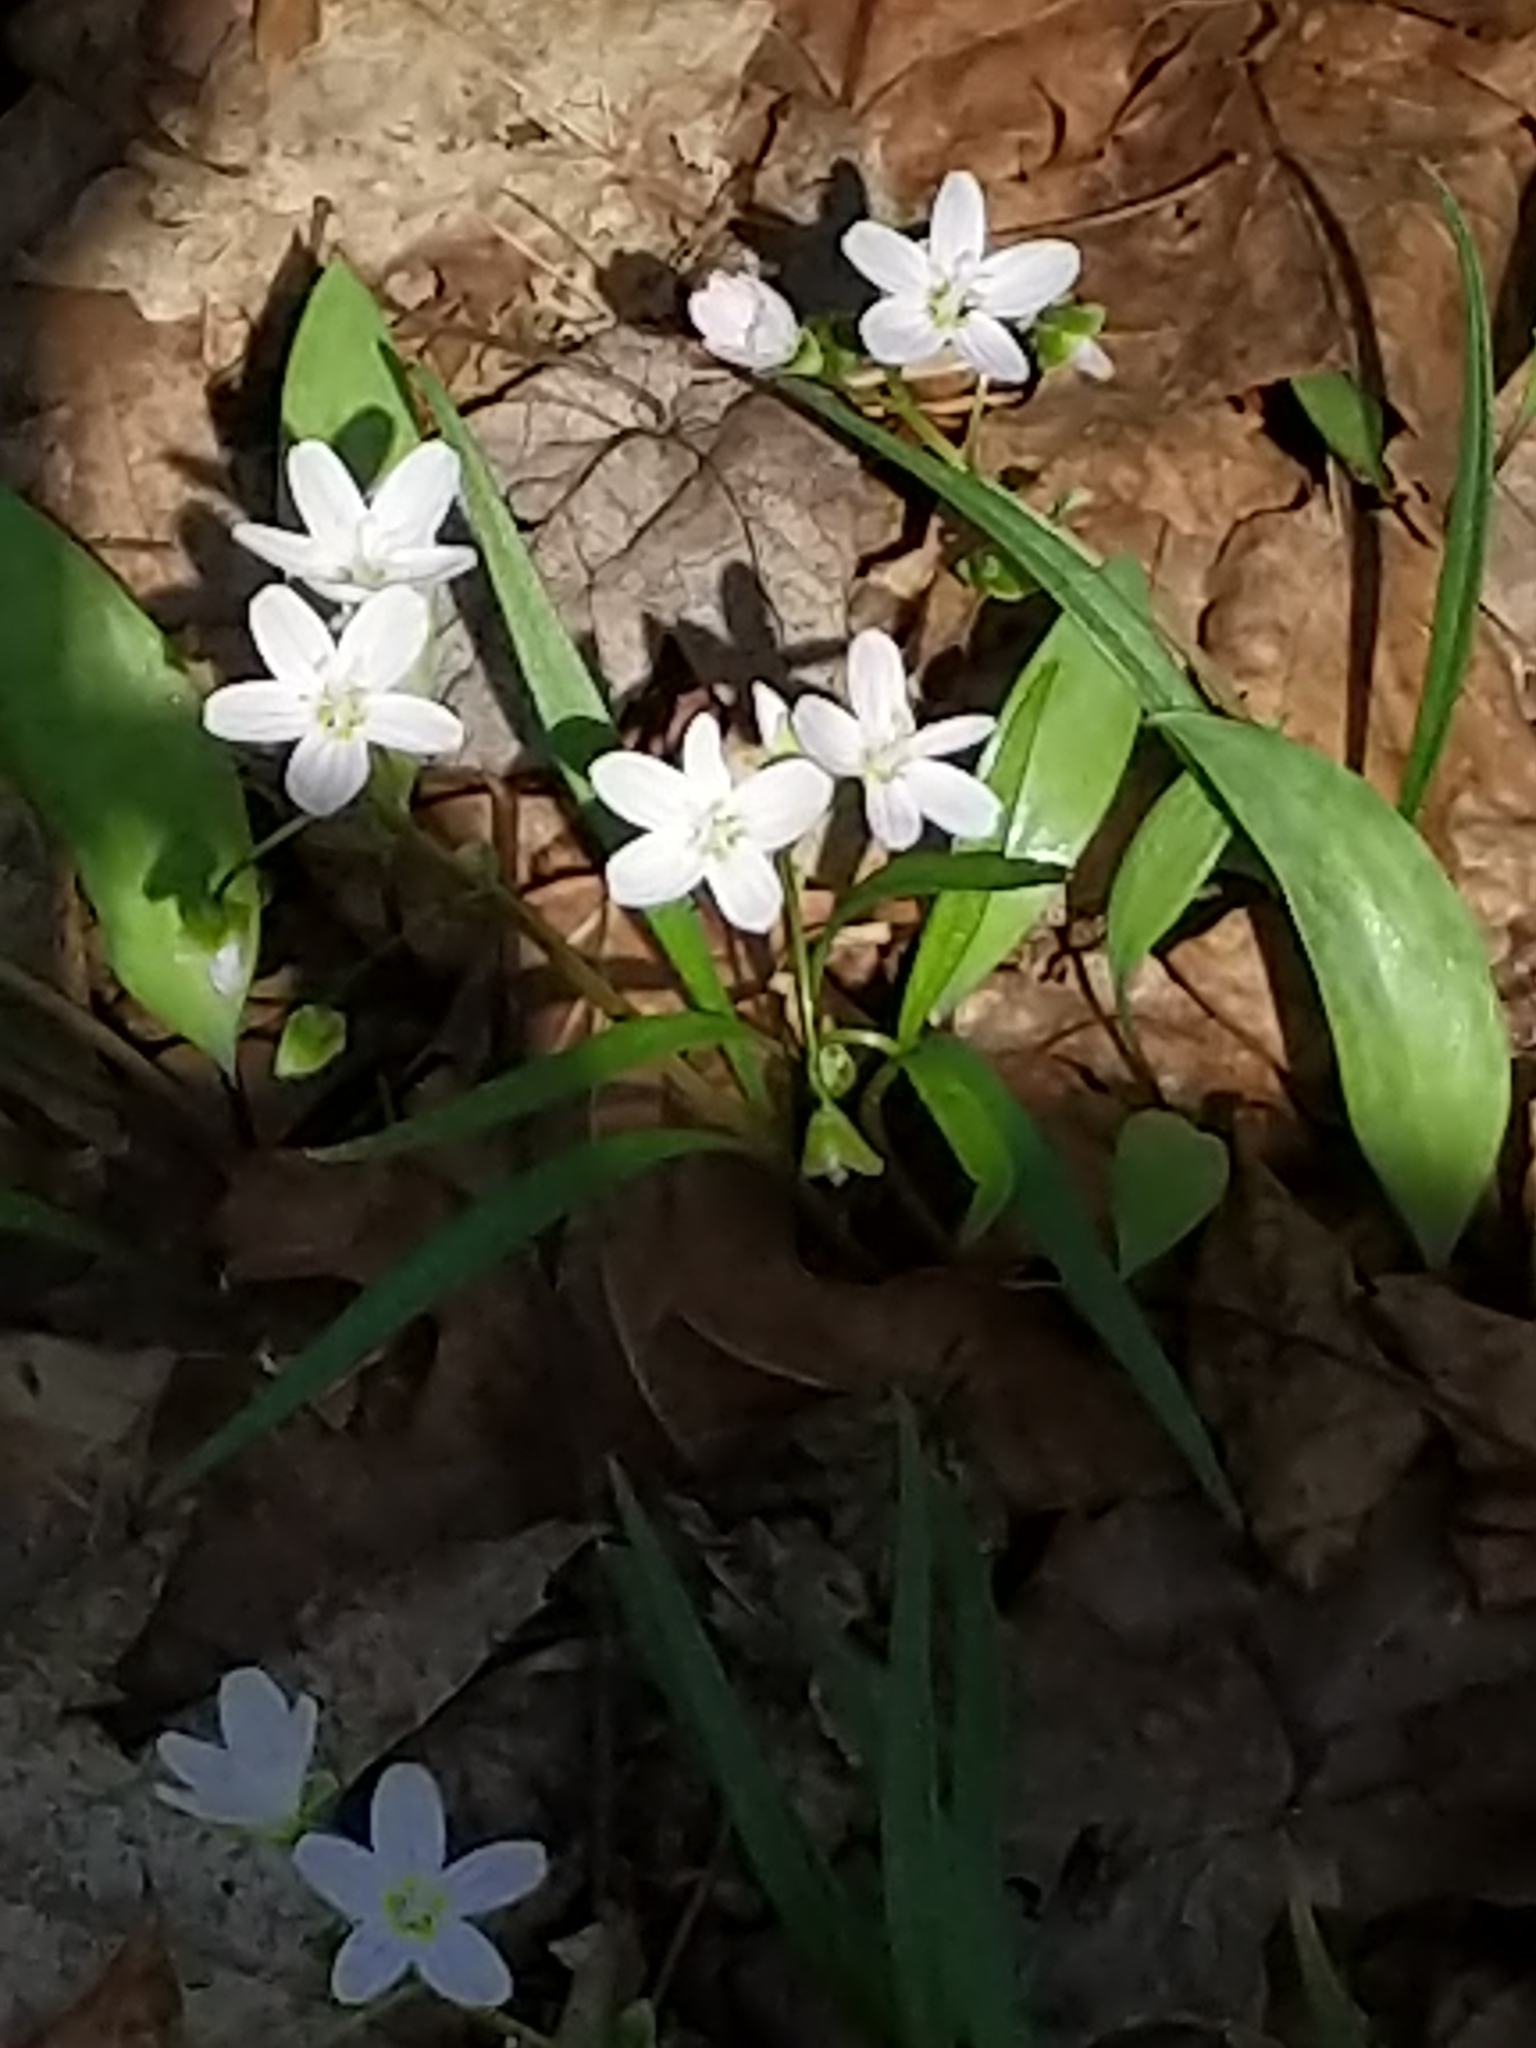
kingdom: Plantae
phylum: Tracheophyta
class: Magnoliopsida
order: Caryophyllales
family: Montiaceae
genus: Claytonia
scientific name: Claytonia virginica
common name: Virginia springbeauty
